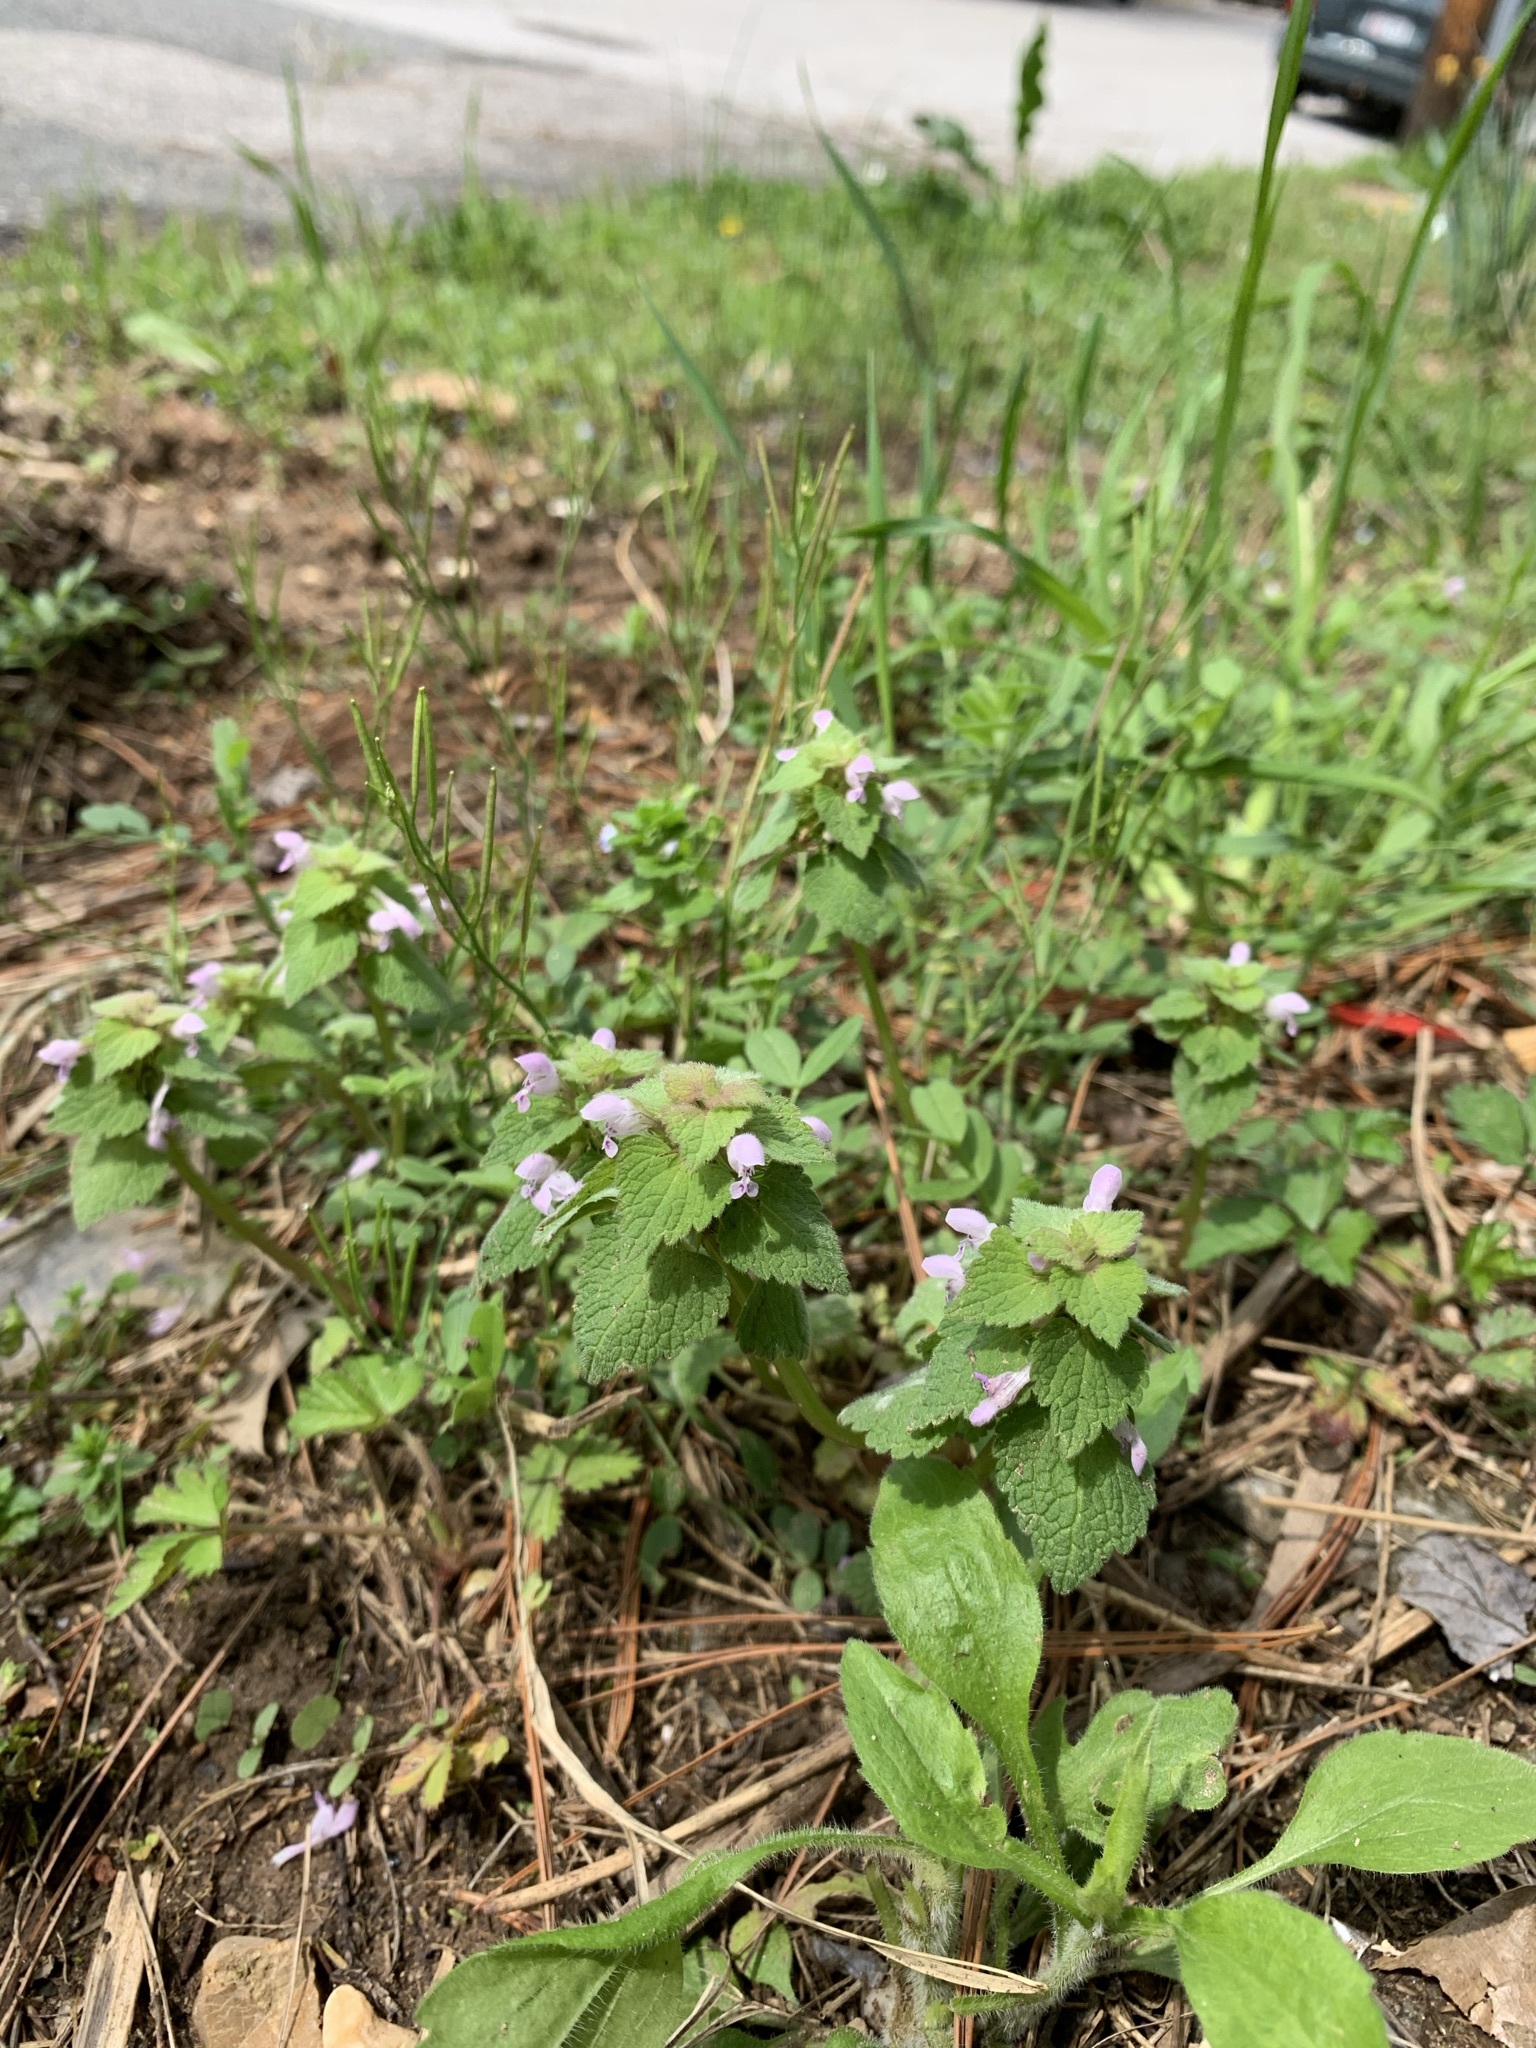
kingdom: Plantae
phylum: Tracheophyta
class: Magnoliopsida
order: Lamiales
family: Lamiaceae
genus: Lamium
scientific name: Lamium purpureum
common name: Red dead-nettle
